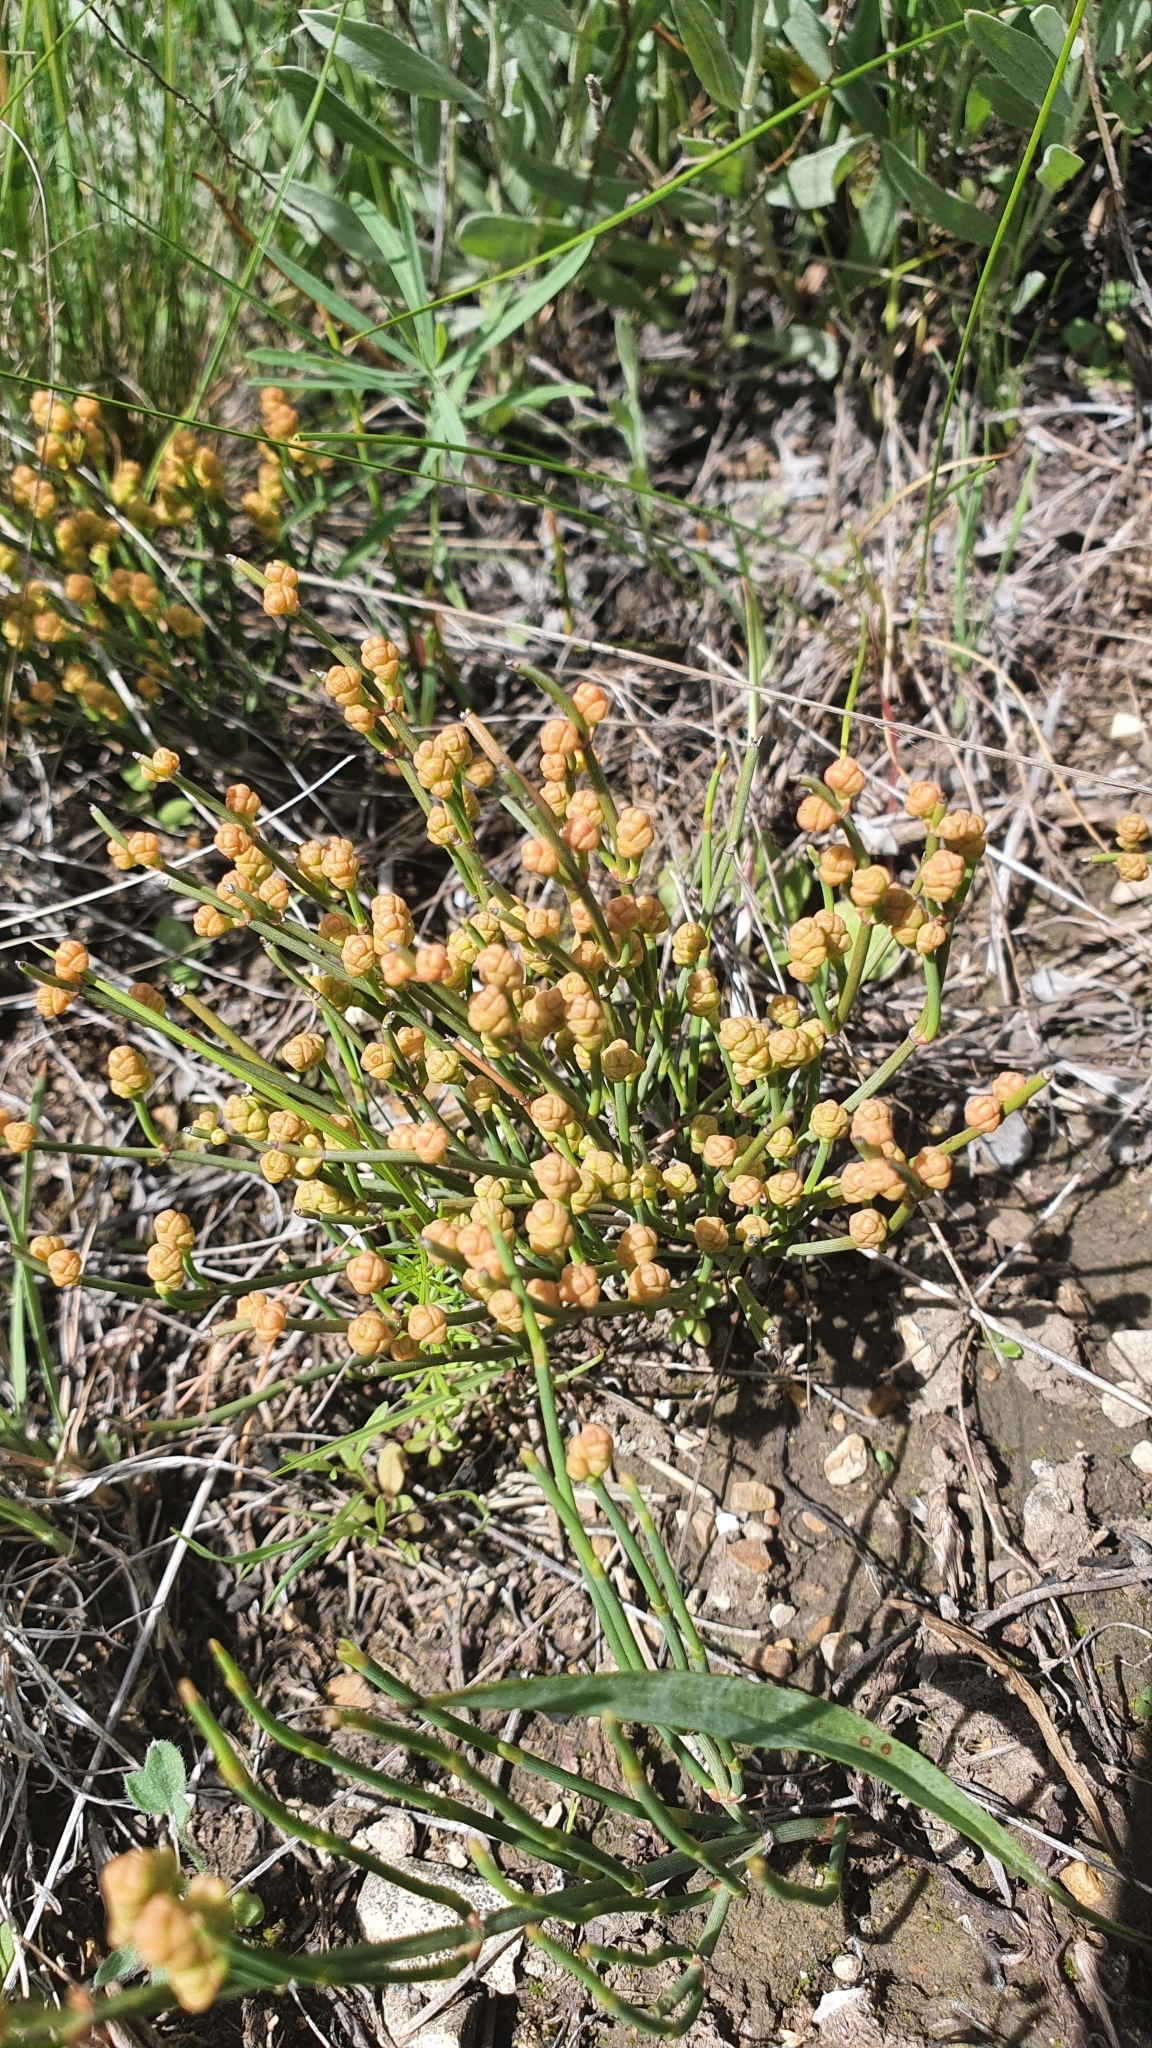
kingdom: Plantae
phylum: Tracheophyta
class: Gnetopsida
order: Ephedrales
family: Ephedraceae
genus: Ephedra
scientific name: Ephedra distachya
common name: Sea grape
